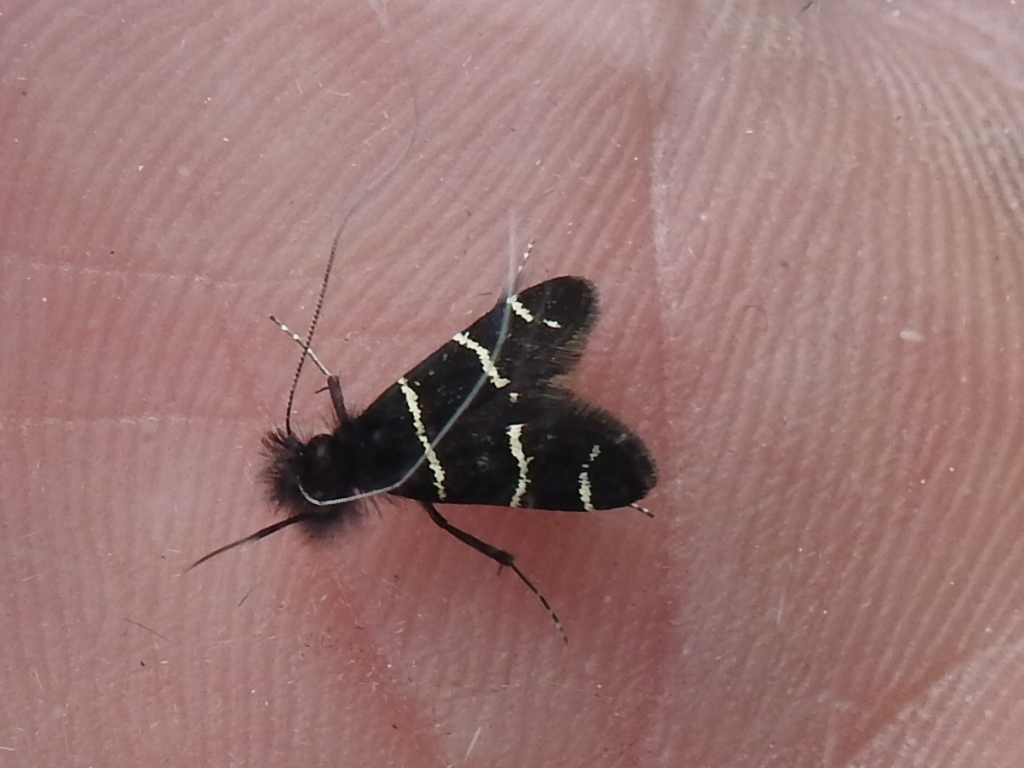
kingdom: Animalia
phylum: Arthropoda
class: Insecta
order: Lepidoptera
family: Adelidae
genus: Adela
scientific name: Adela trigrapha
